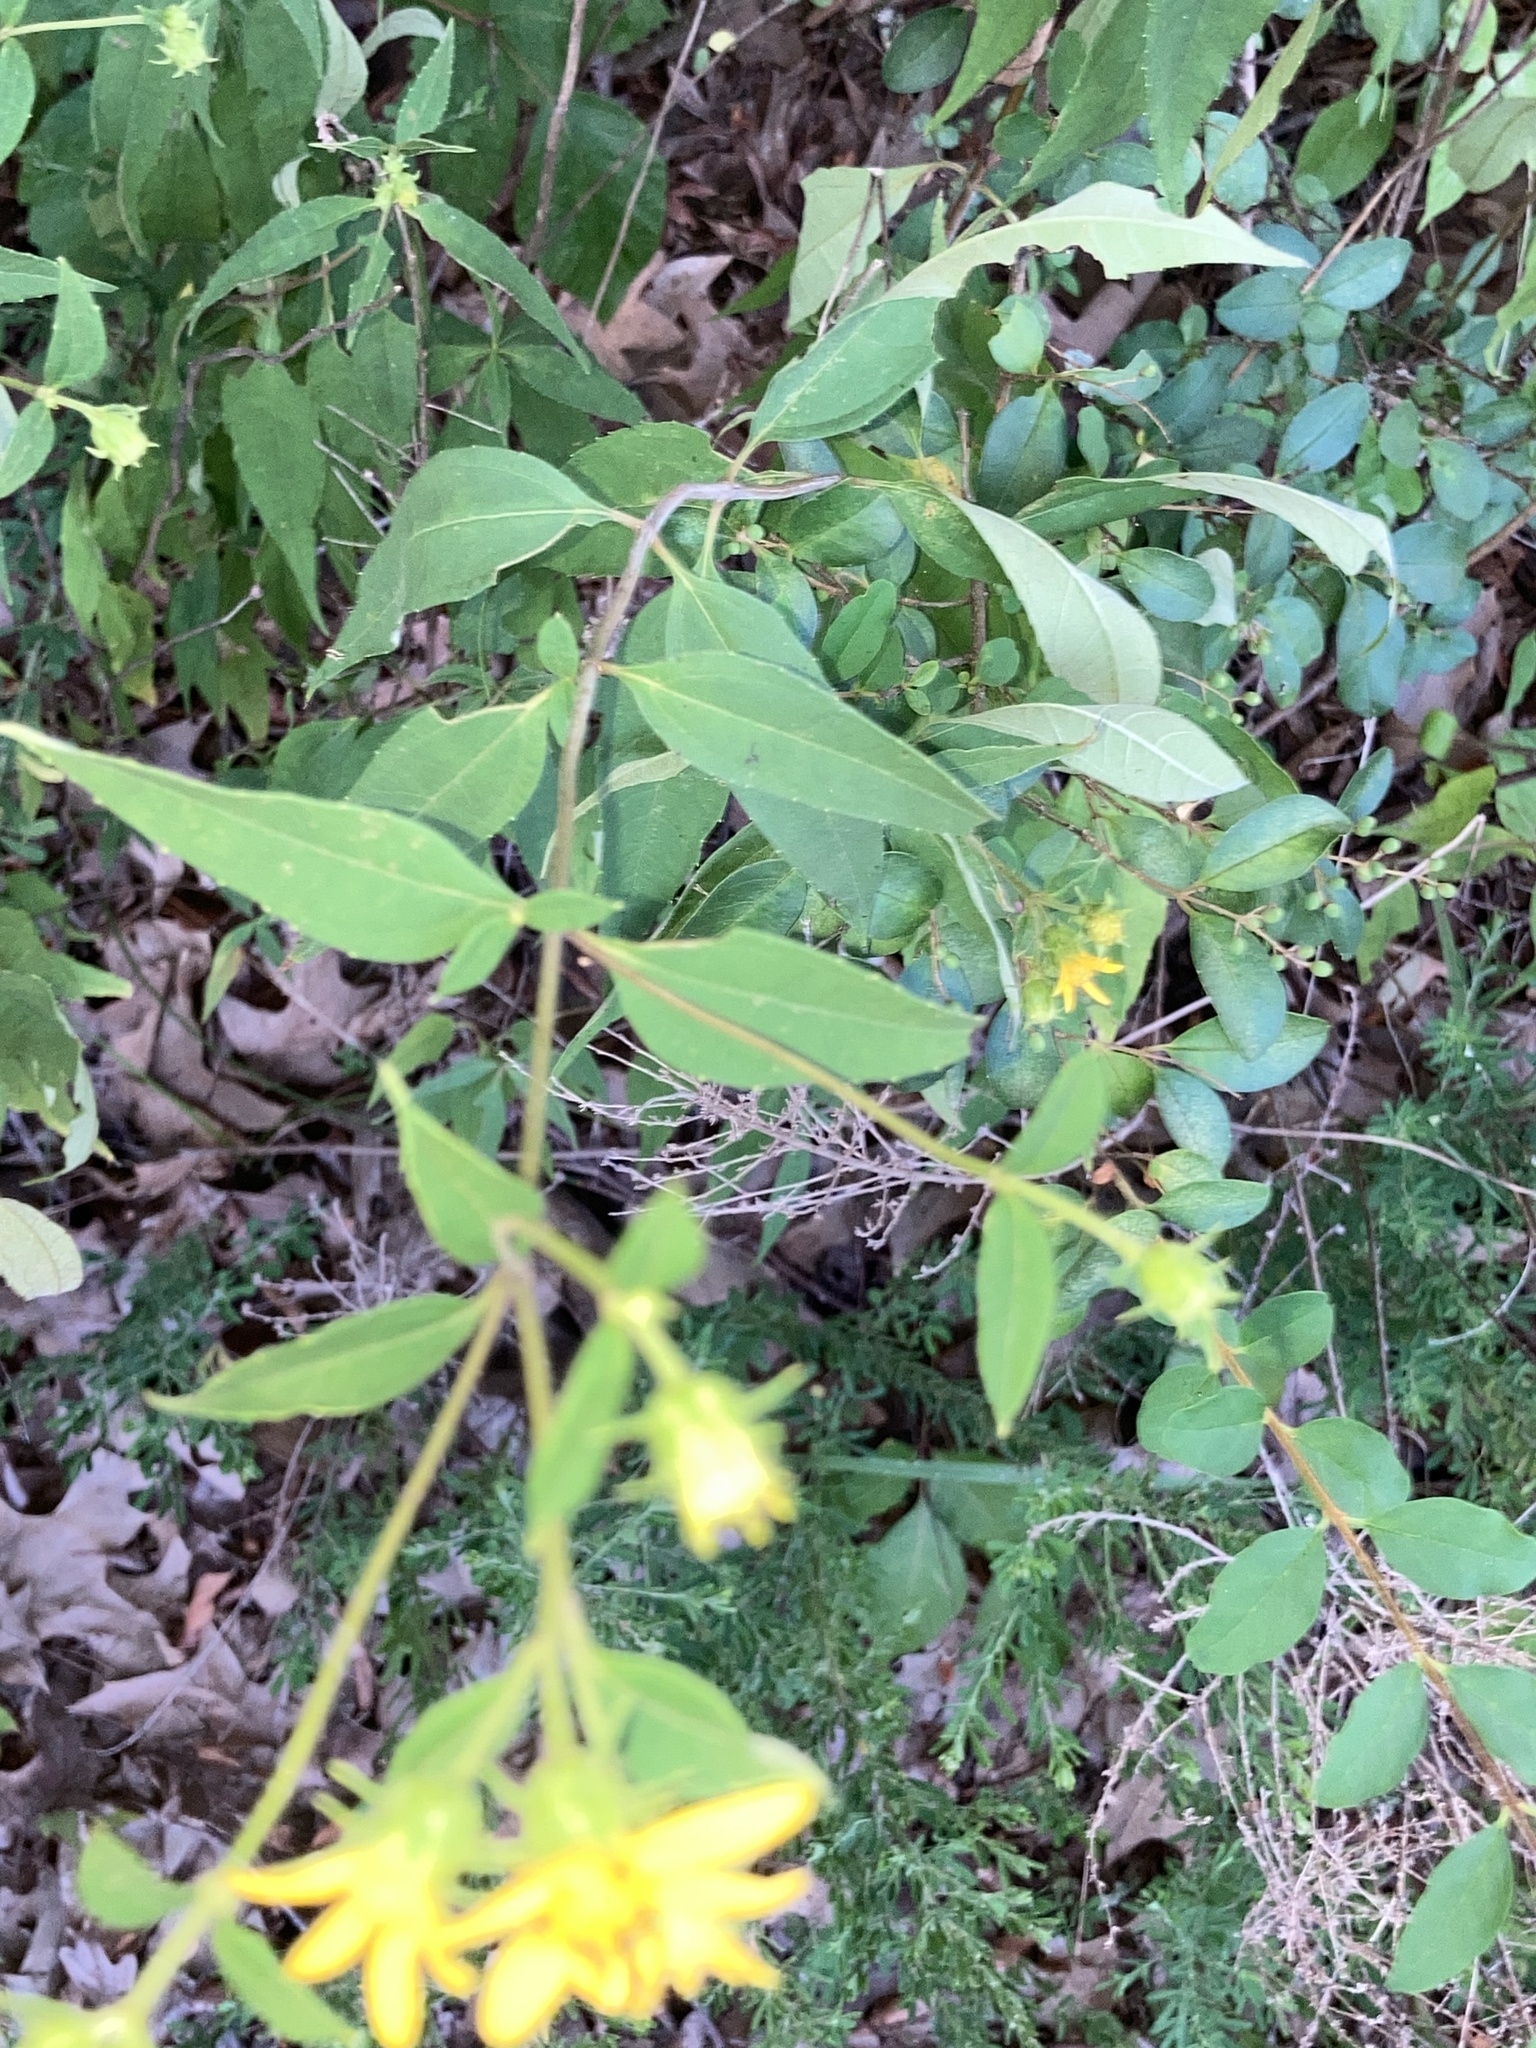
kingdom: Plantae
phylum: Tracheophyta
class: Magnoliopsida
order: Asterales
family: Asteraceae
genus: Helianthus
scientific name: Helianthus microcephalus
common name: Woodland sunflower
